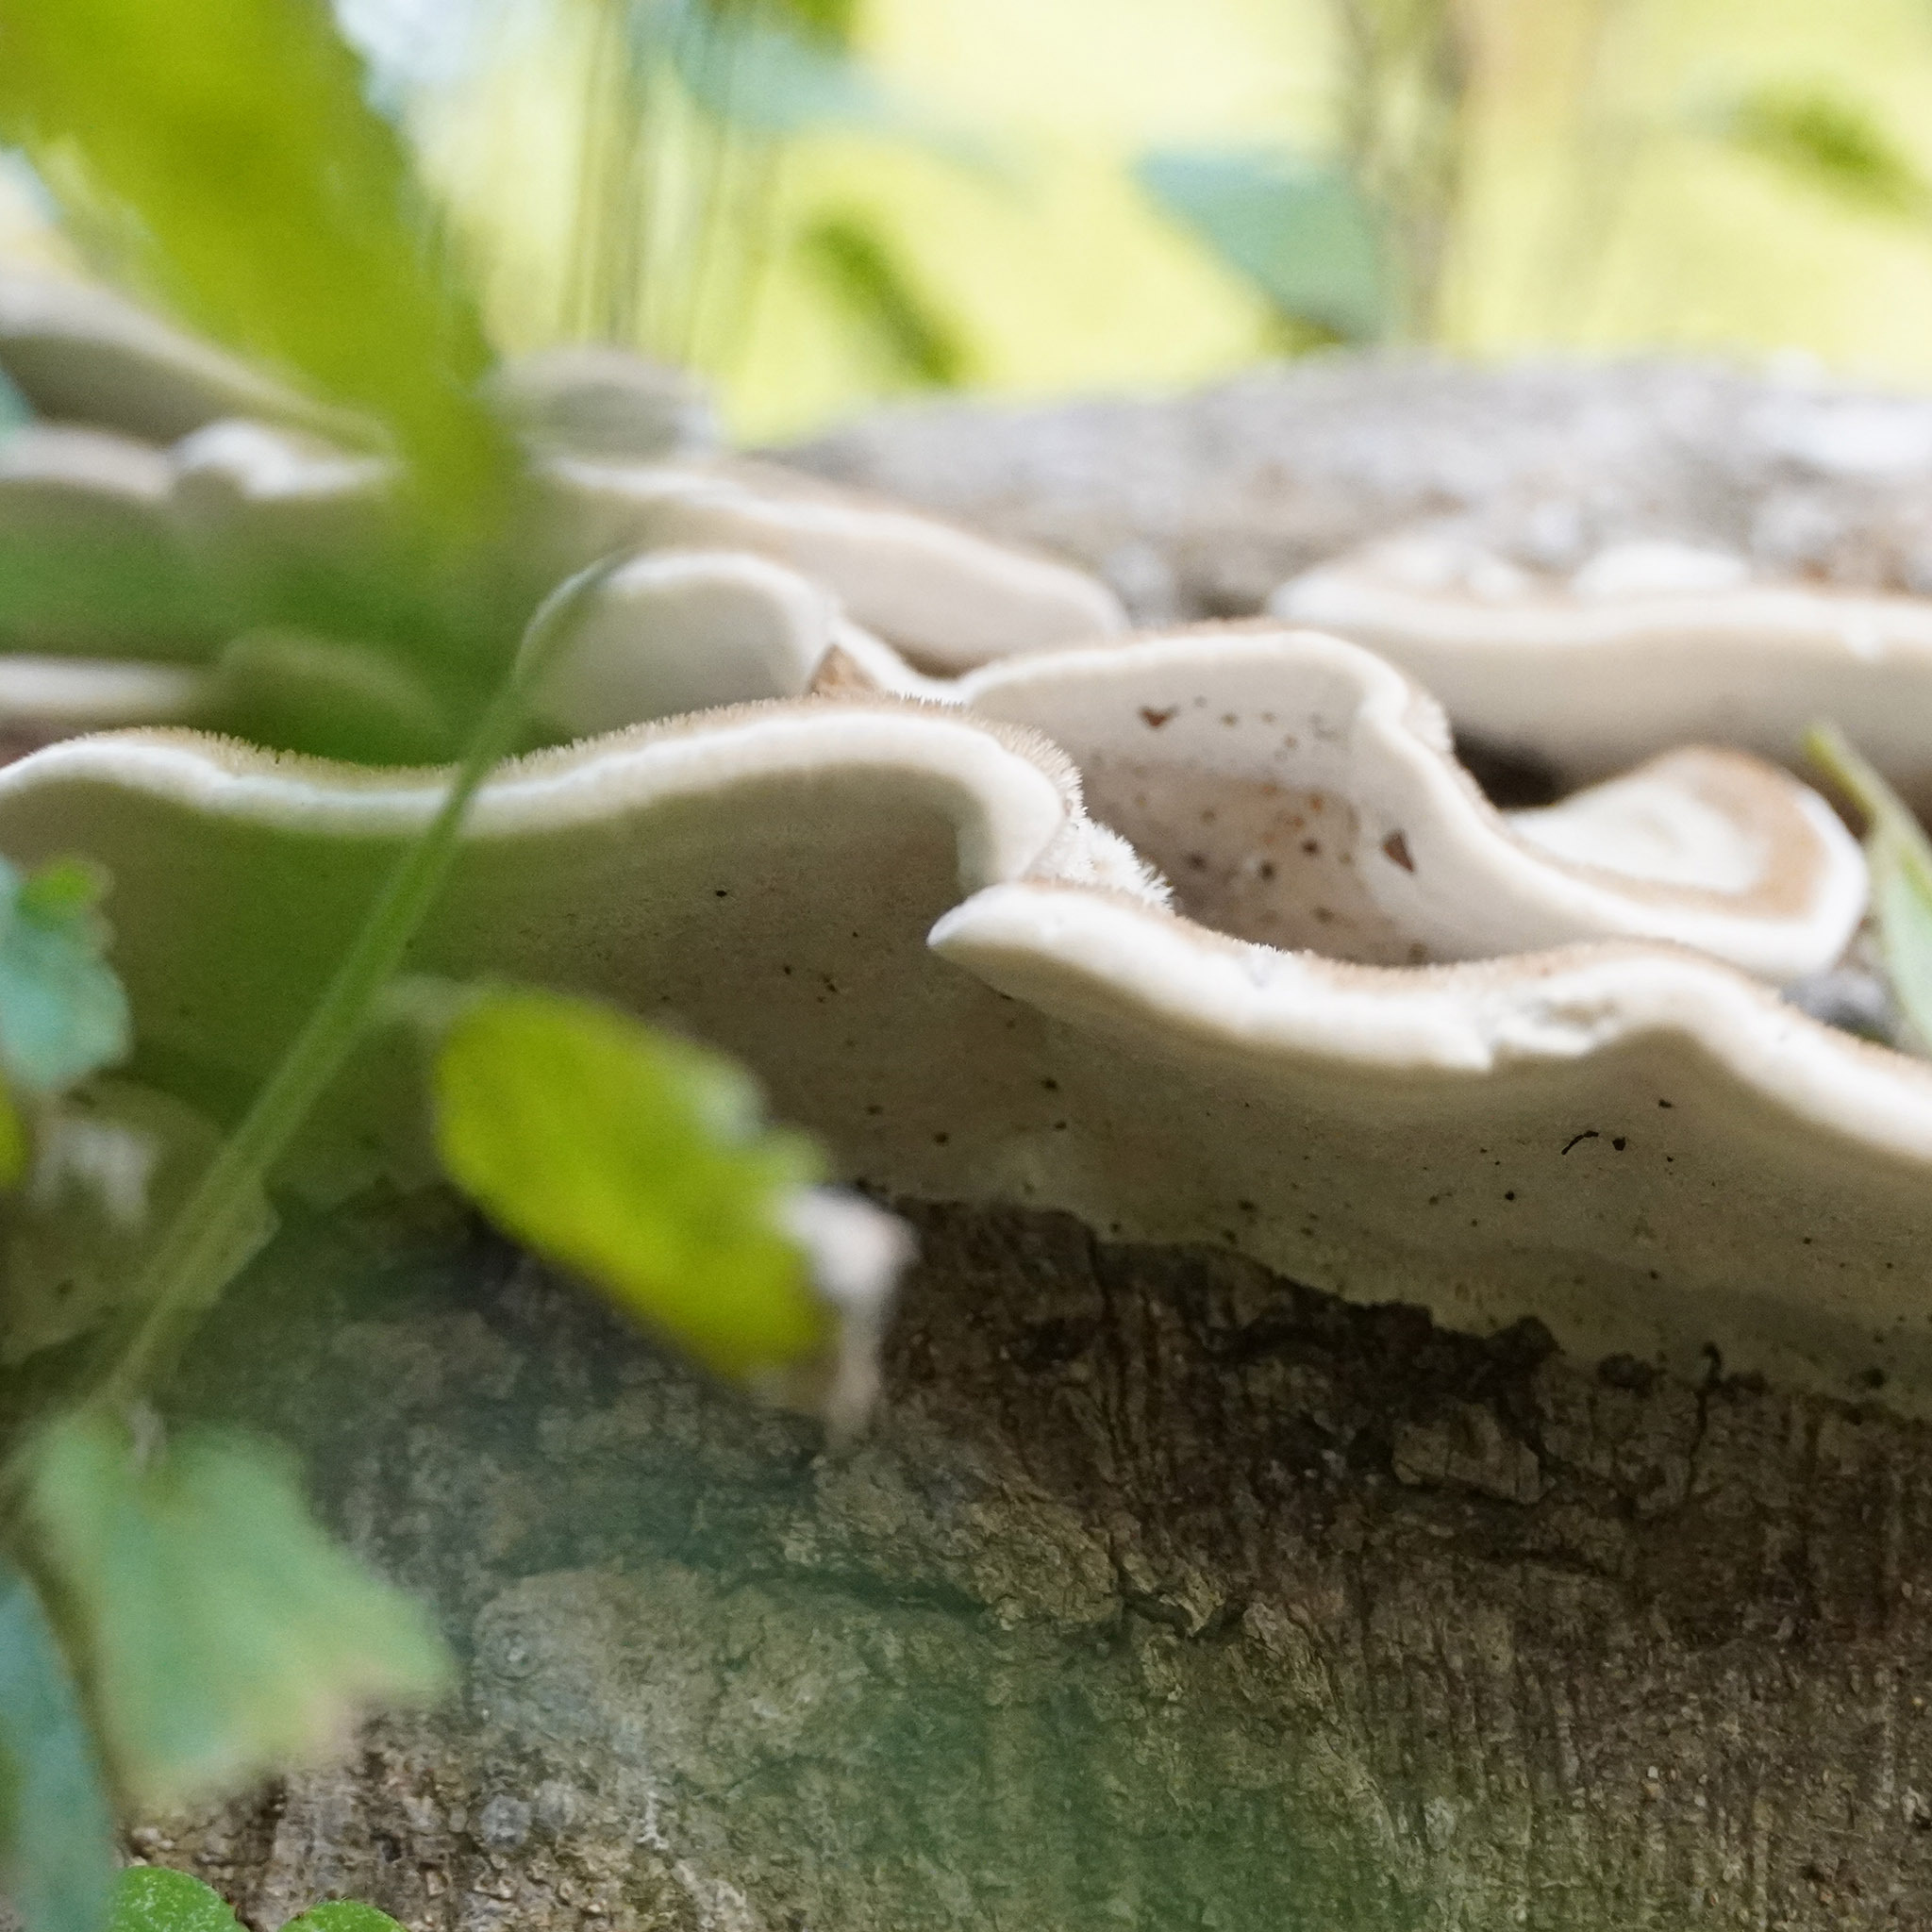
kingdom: Fungi
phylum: Basidiomycota
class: Agaricomycetes
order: Polyporales
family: Polyporaceae
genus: Trametes
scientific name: Trametes hirsuta
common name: Hairy bracket
